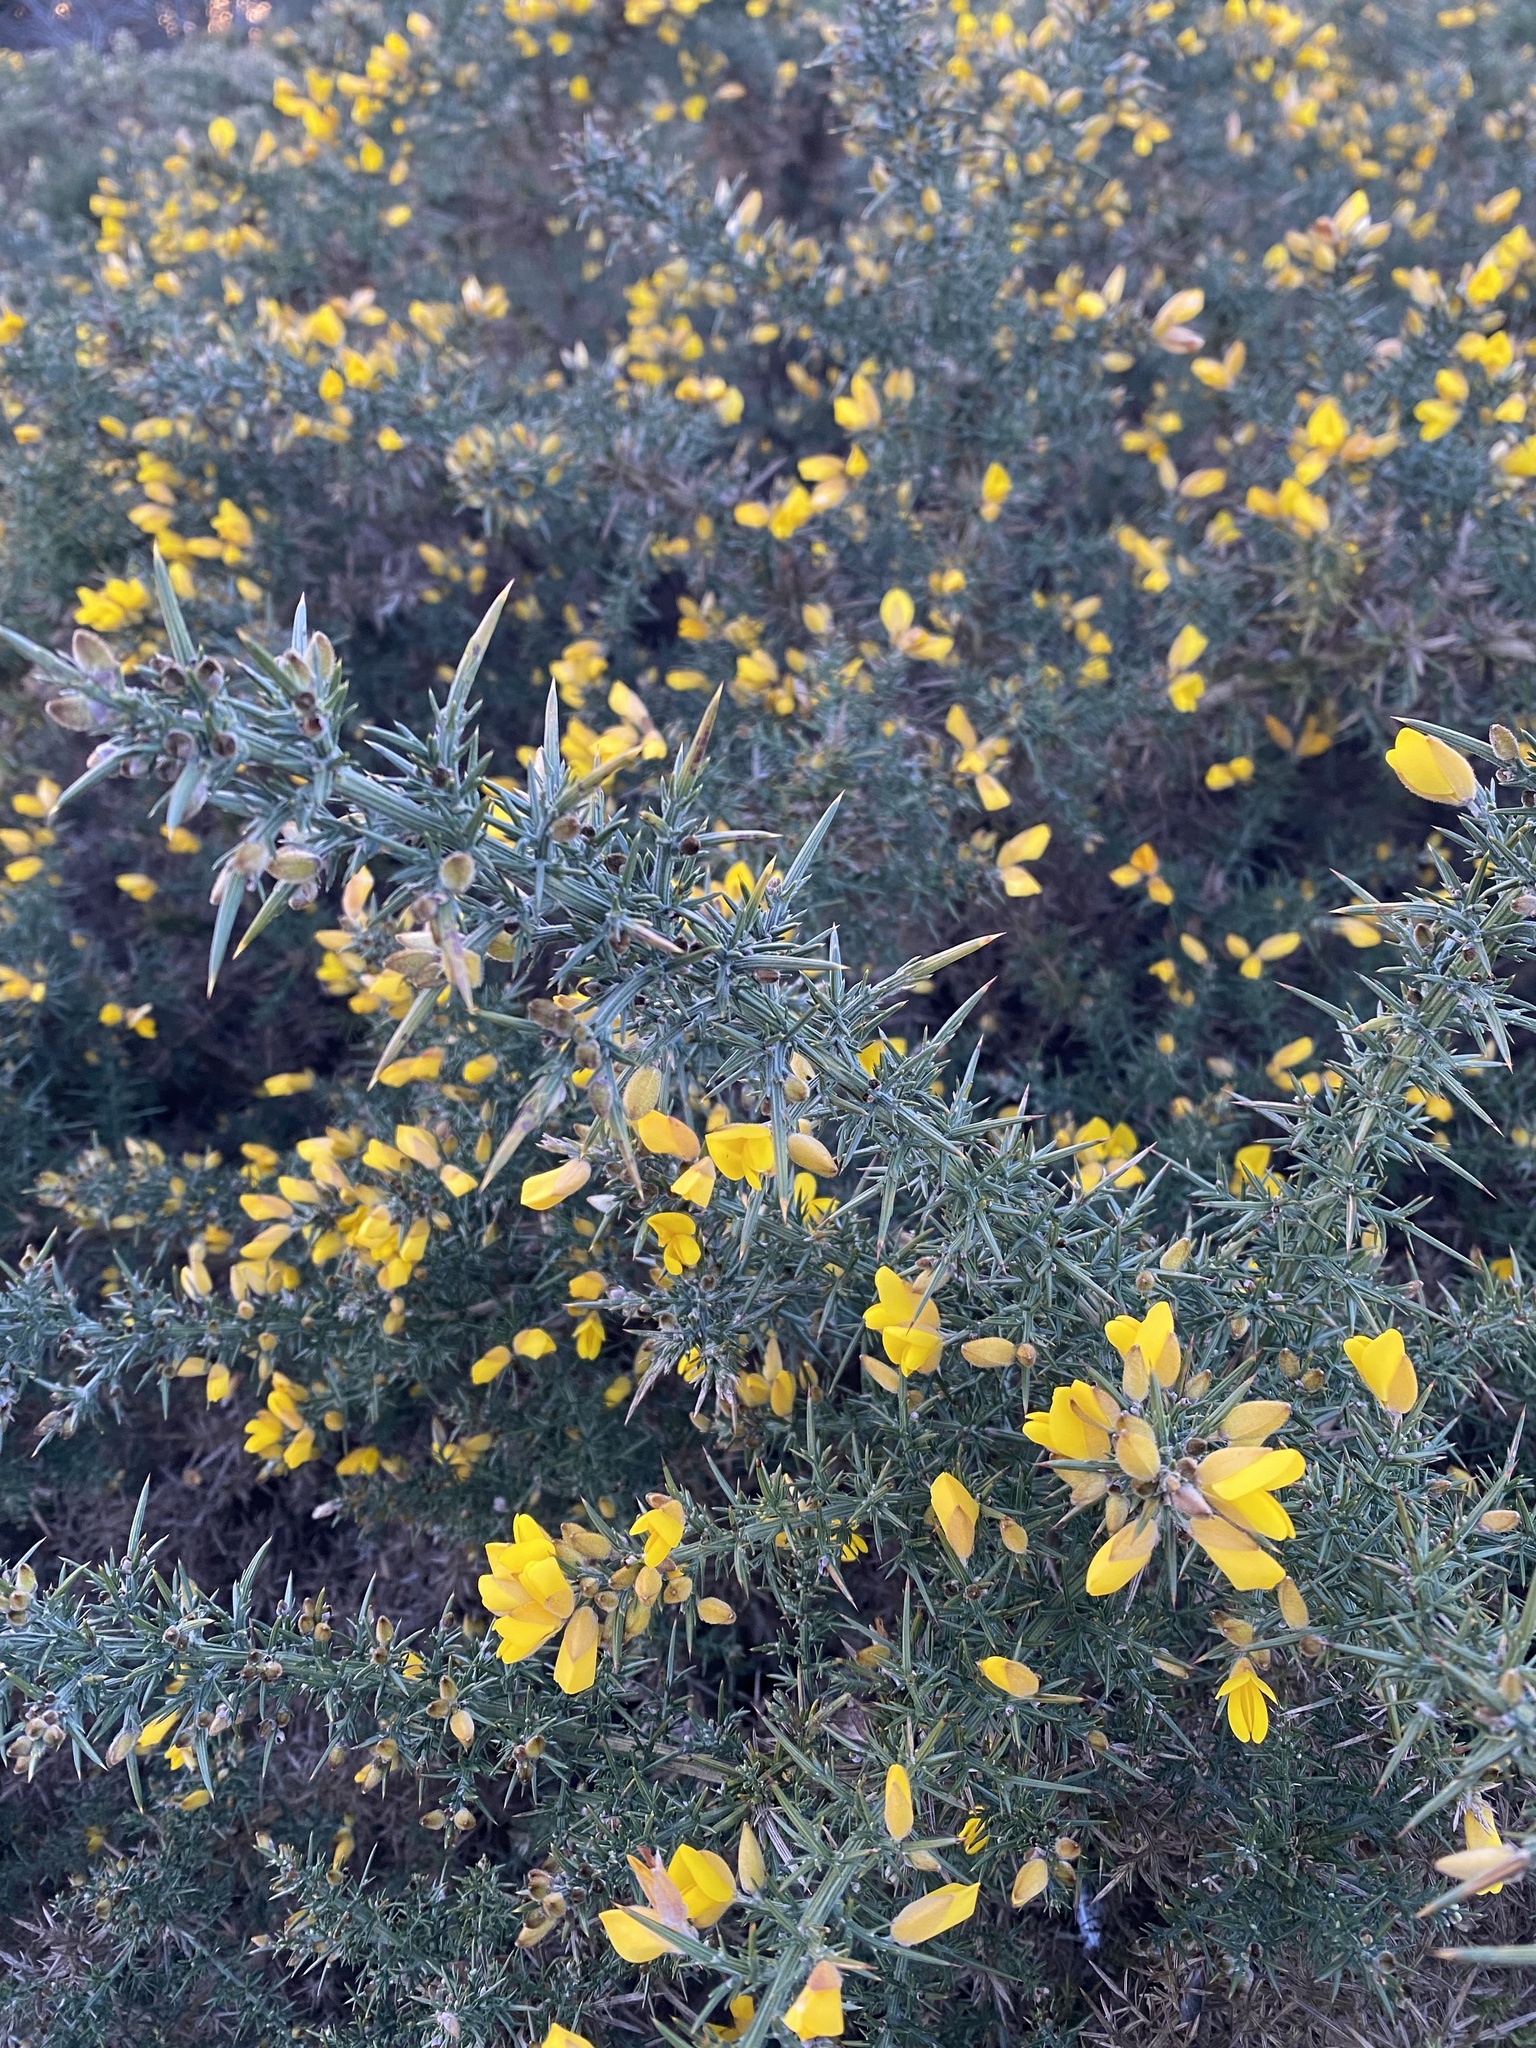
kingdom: Plantae
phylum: Tracheophyta
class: Magnoliopsida
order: Fabales
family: Fabaceae
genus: Ulex
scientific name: Ulex europaeus
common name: Common gorse
